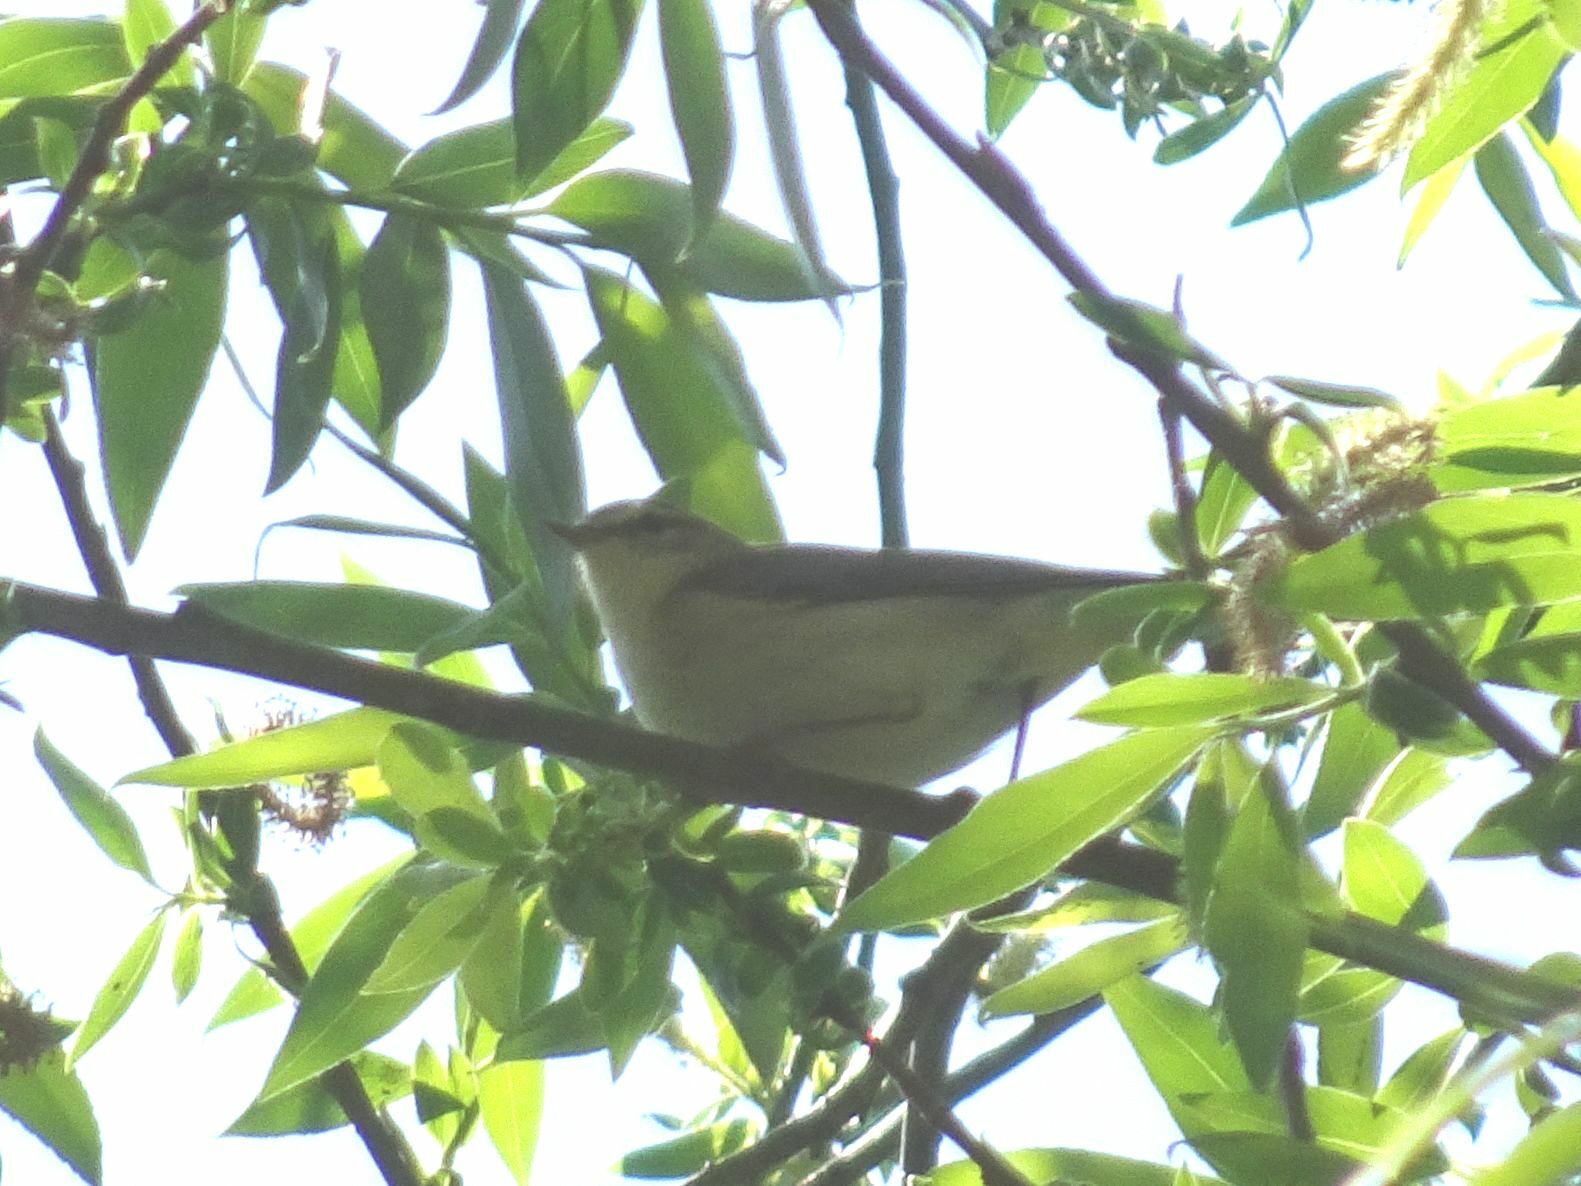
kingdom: Animalia
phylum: Chordata
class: Aves
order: Passeriformes
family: Phylloscopidae
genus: Phylloscopus
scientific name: Phylloscopus trochilus
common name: Willow warbler
